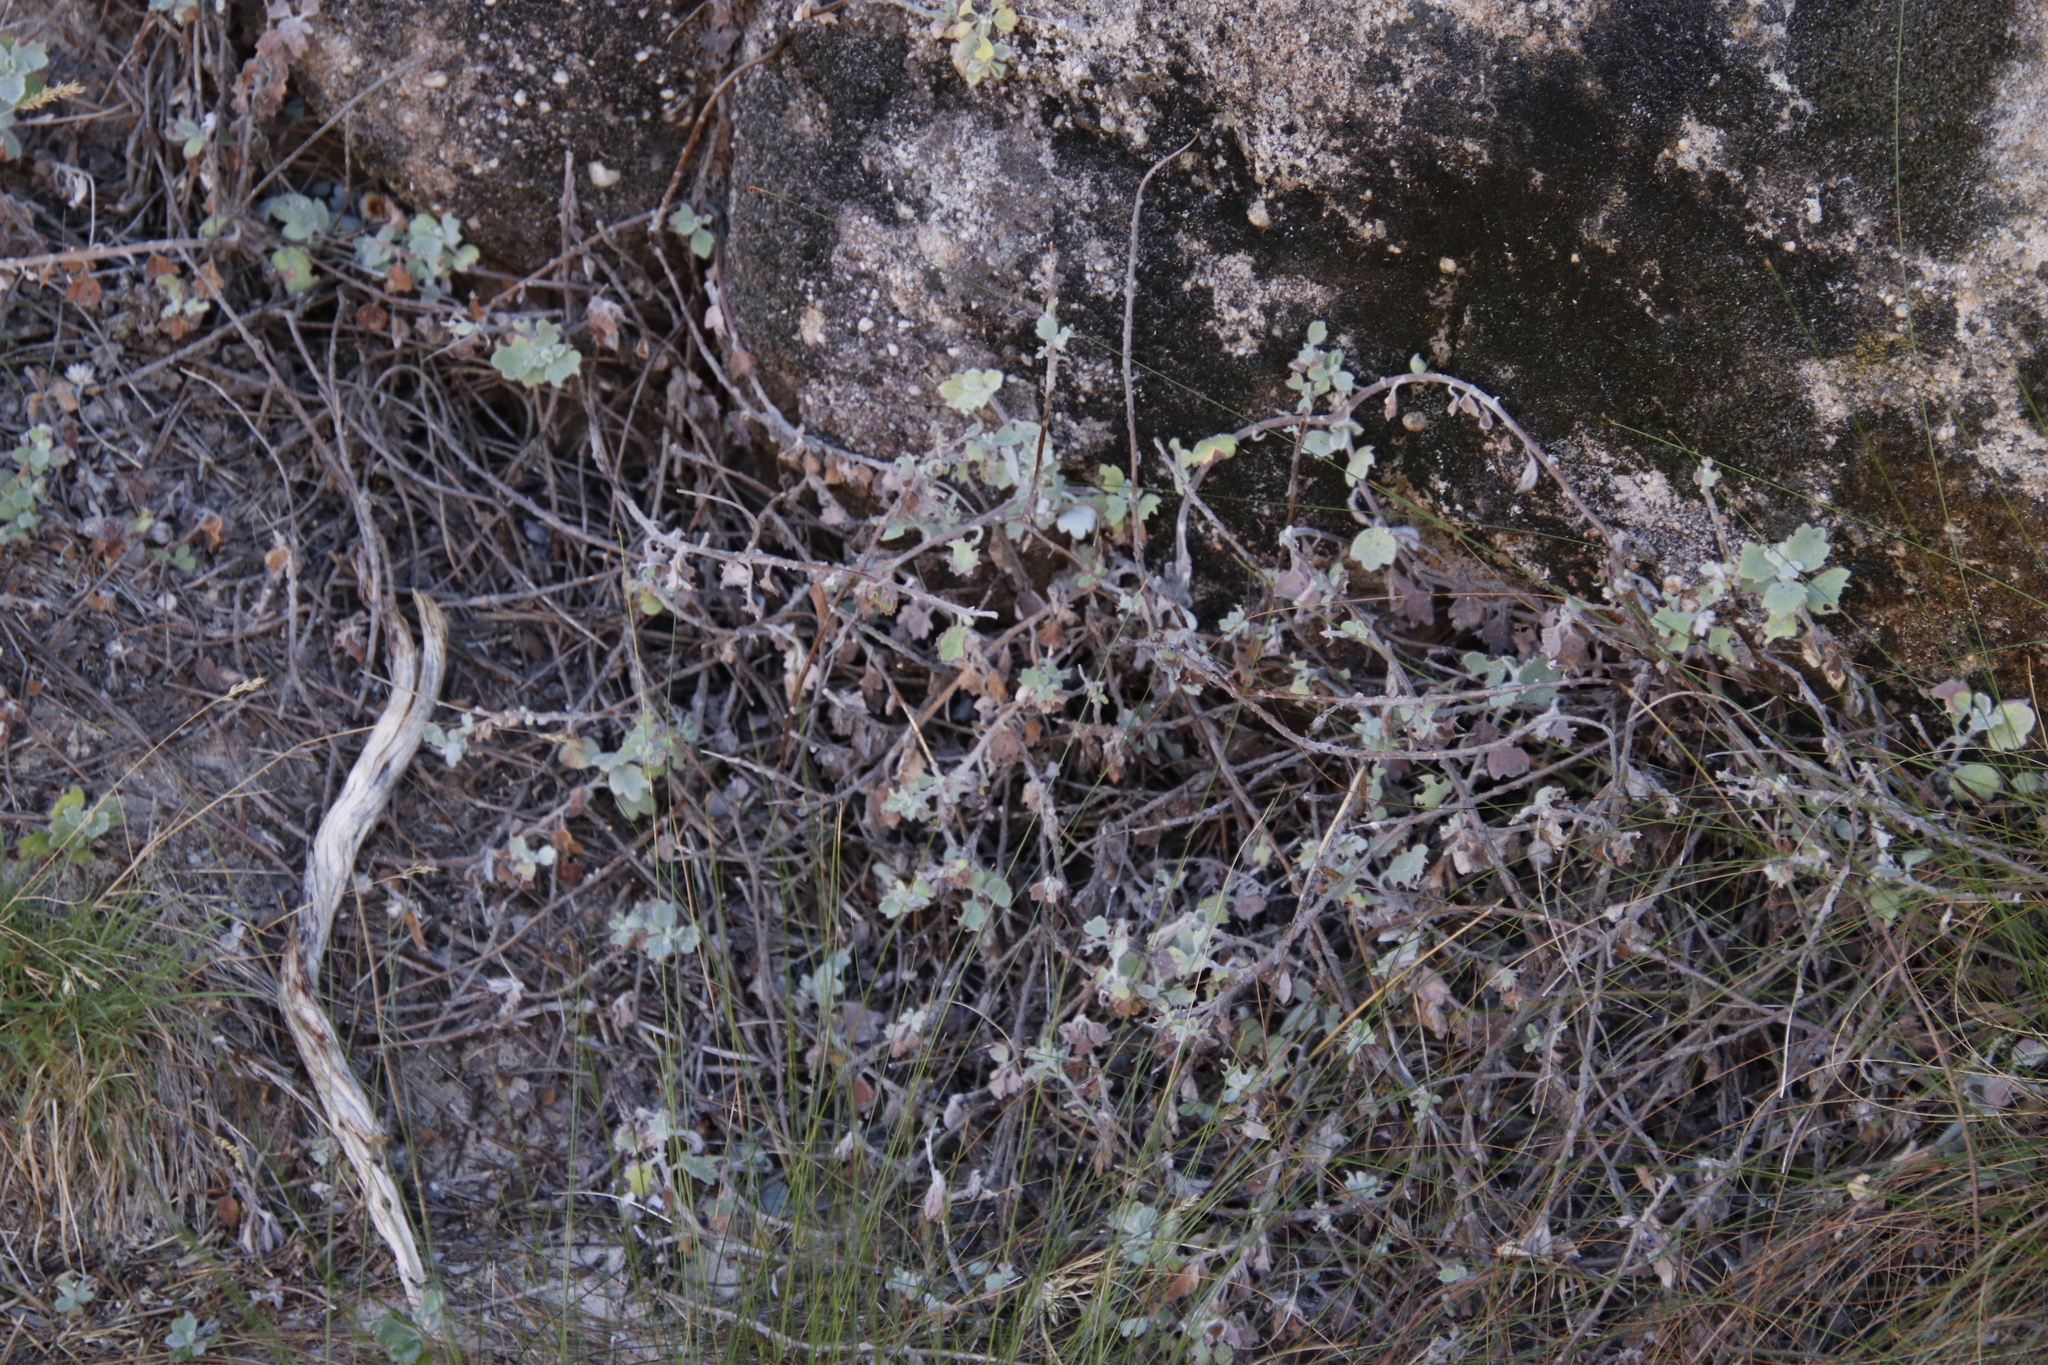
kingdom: Plantae
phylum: Tracheophyta
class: Magnoliopsida
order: Asterales
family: Asteraceae
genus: Lidbeckia
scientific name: Lidbeckia quinqueloba
